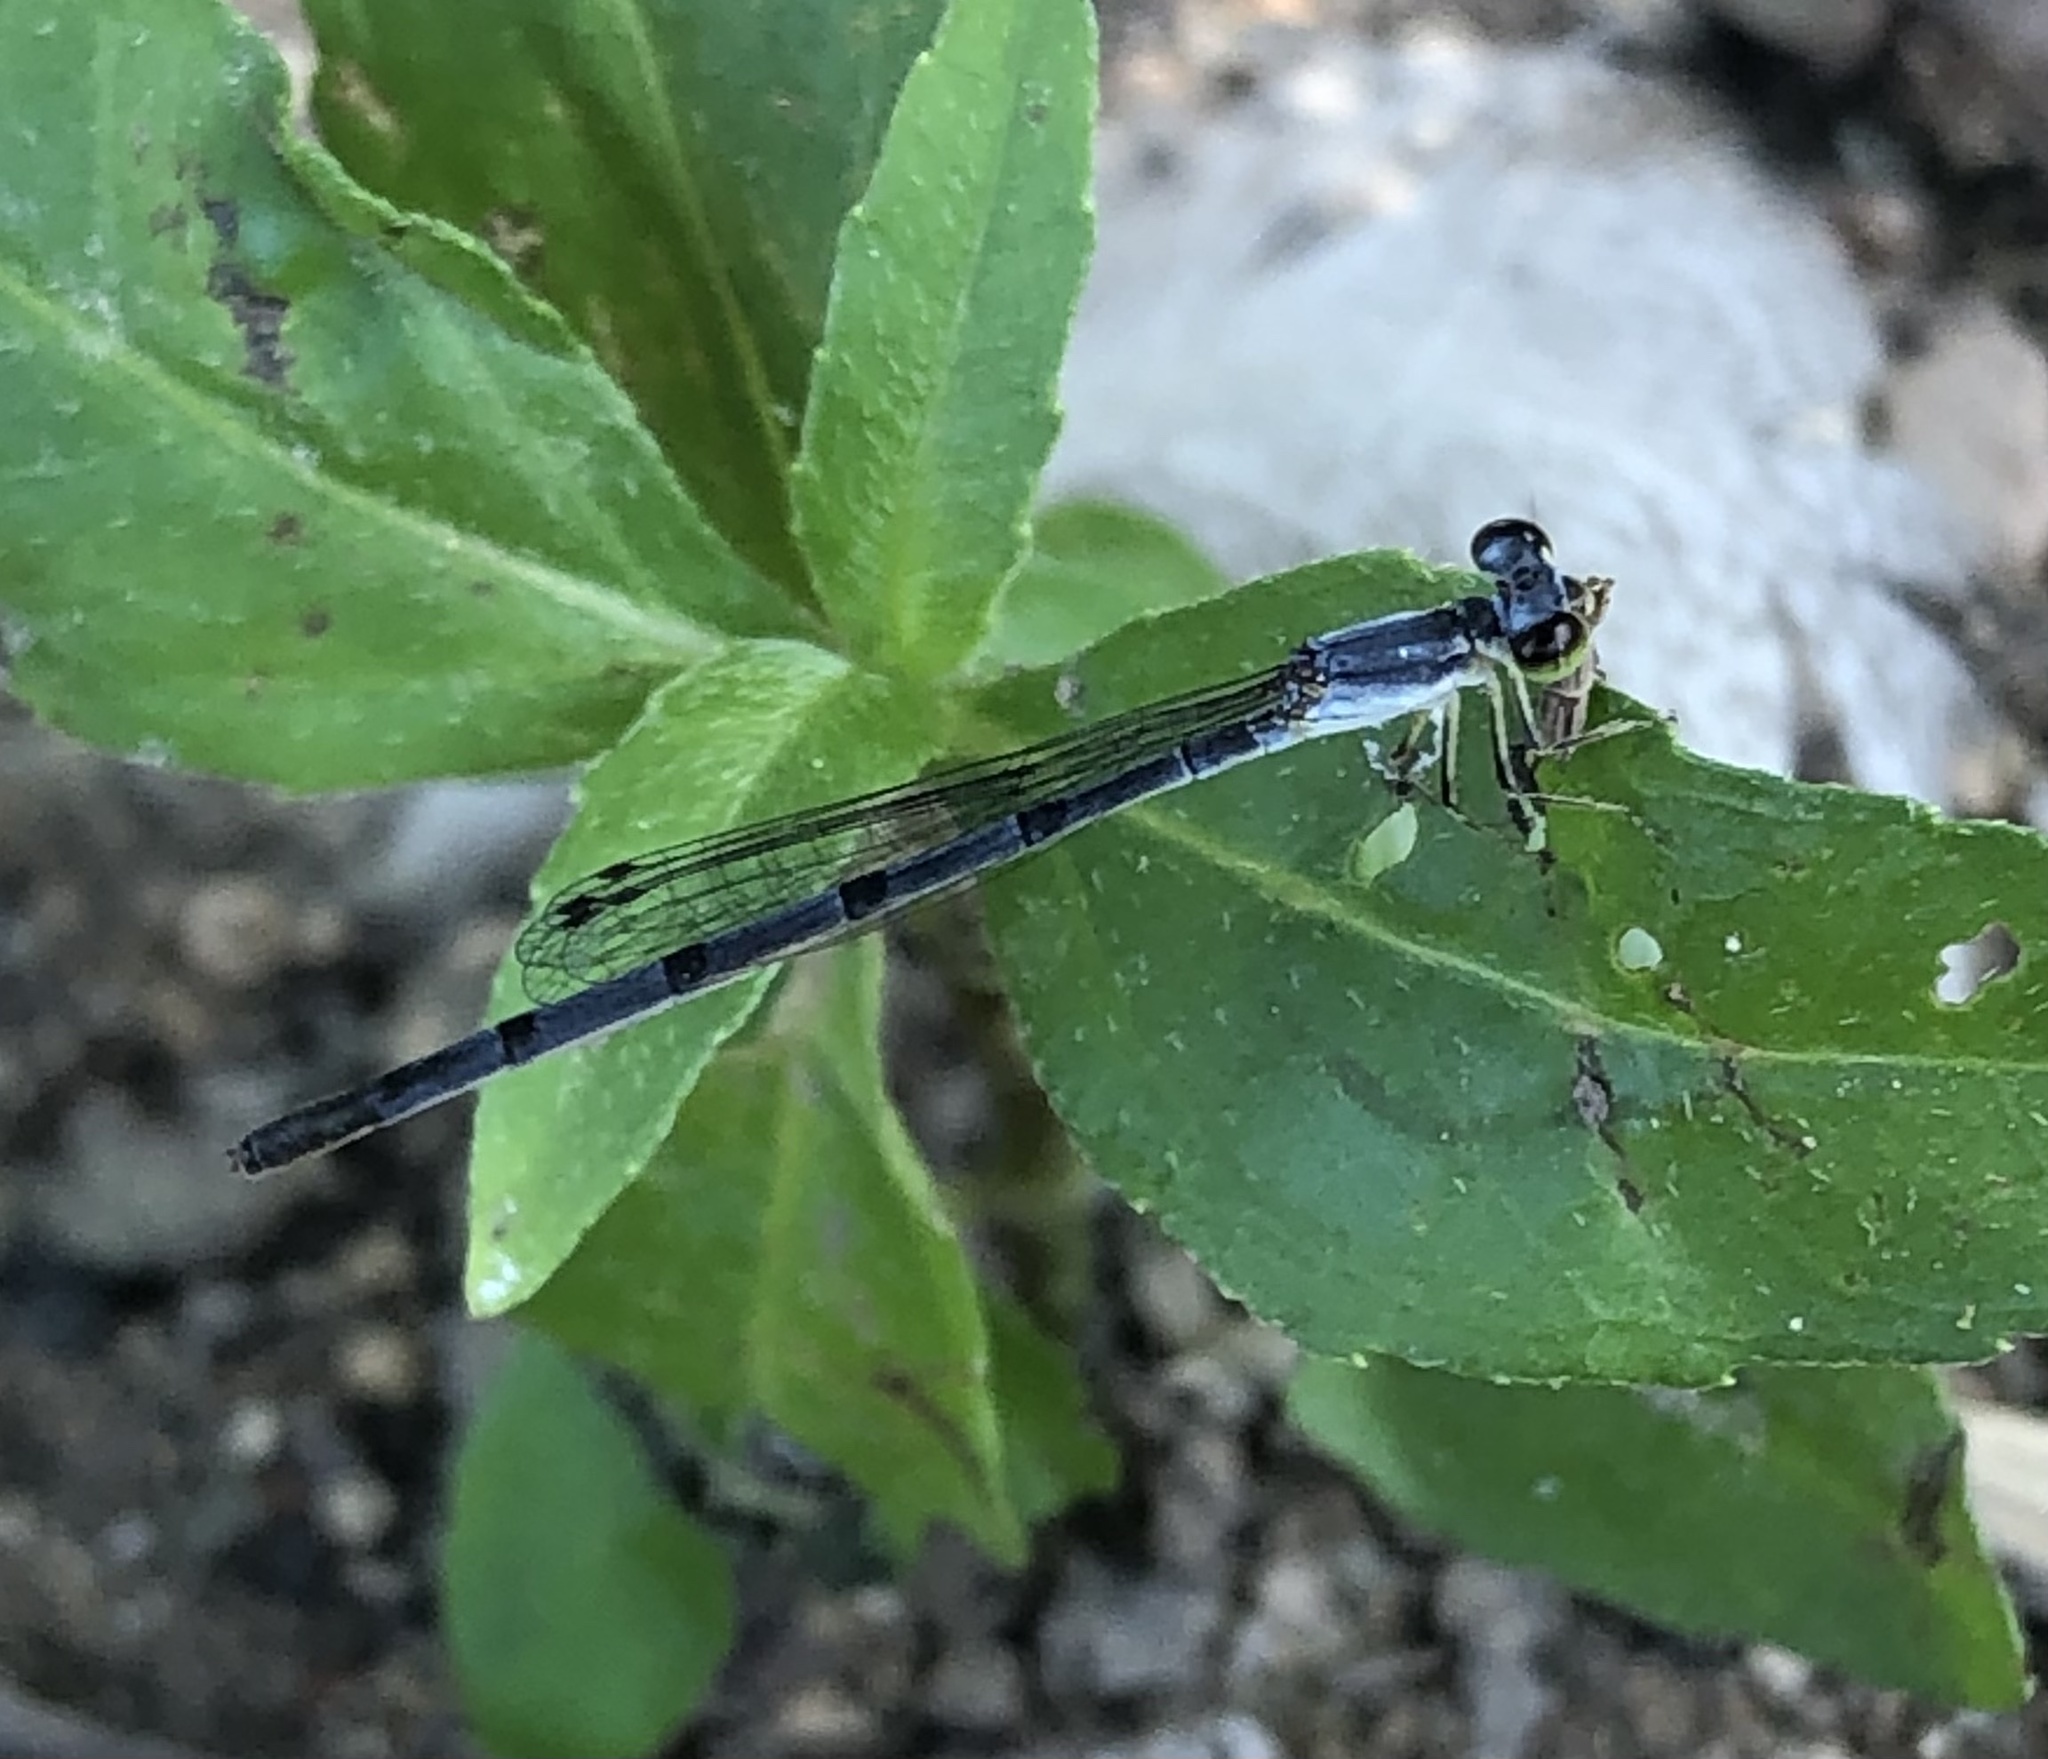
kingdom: Animalia
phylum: Arthropoda
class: Insecta
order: Odonata
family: Coenagrionidae
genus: Ischnura
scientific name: Ischnura posita
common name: Fragile forktail
